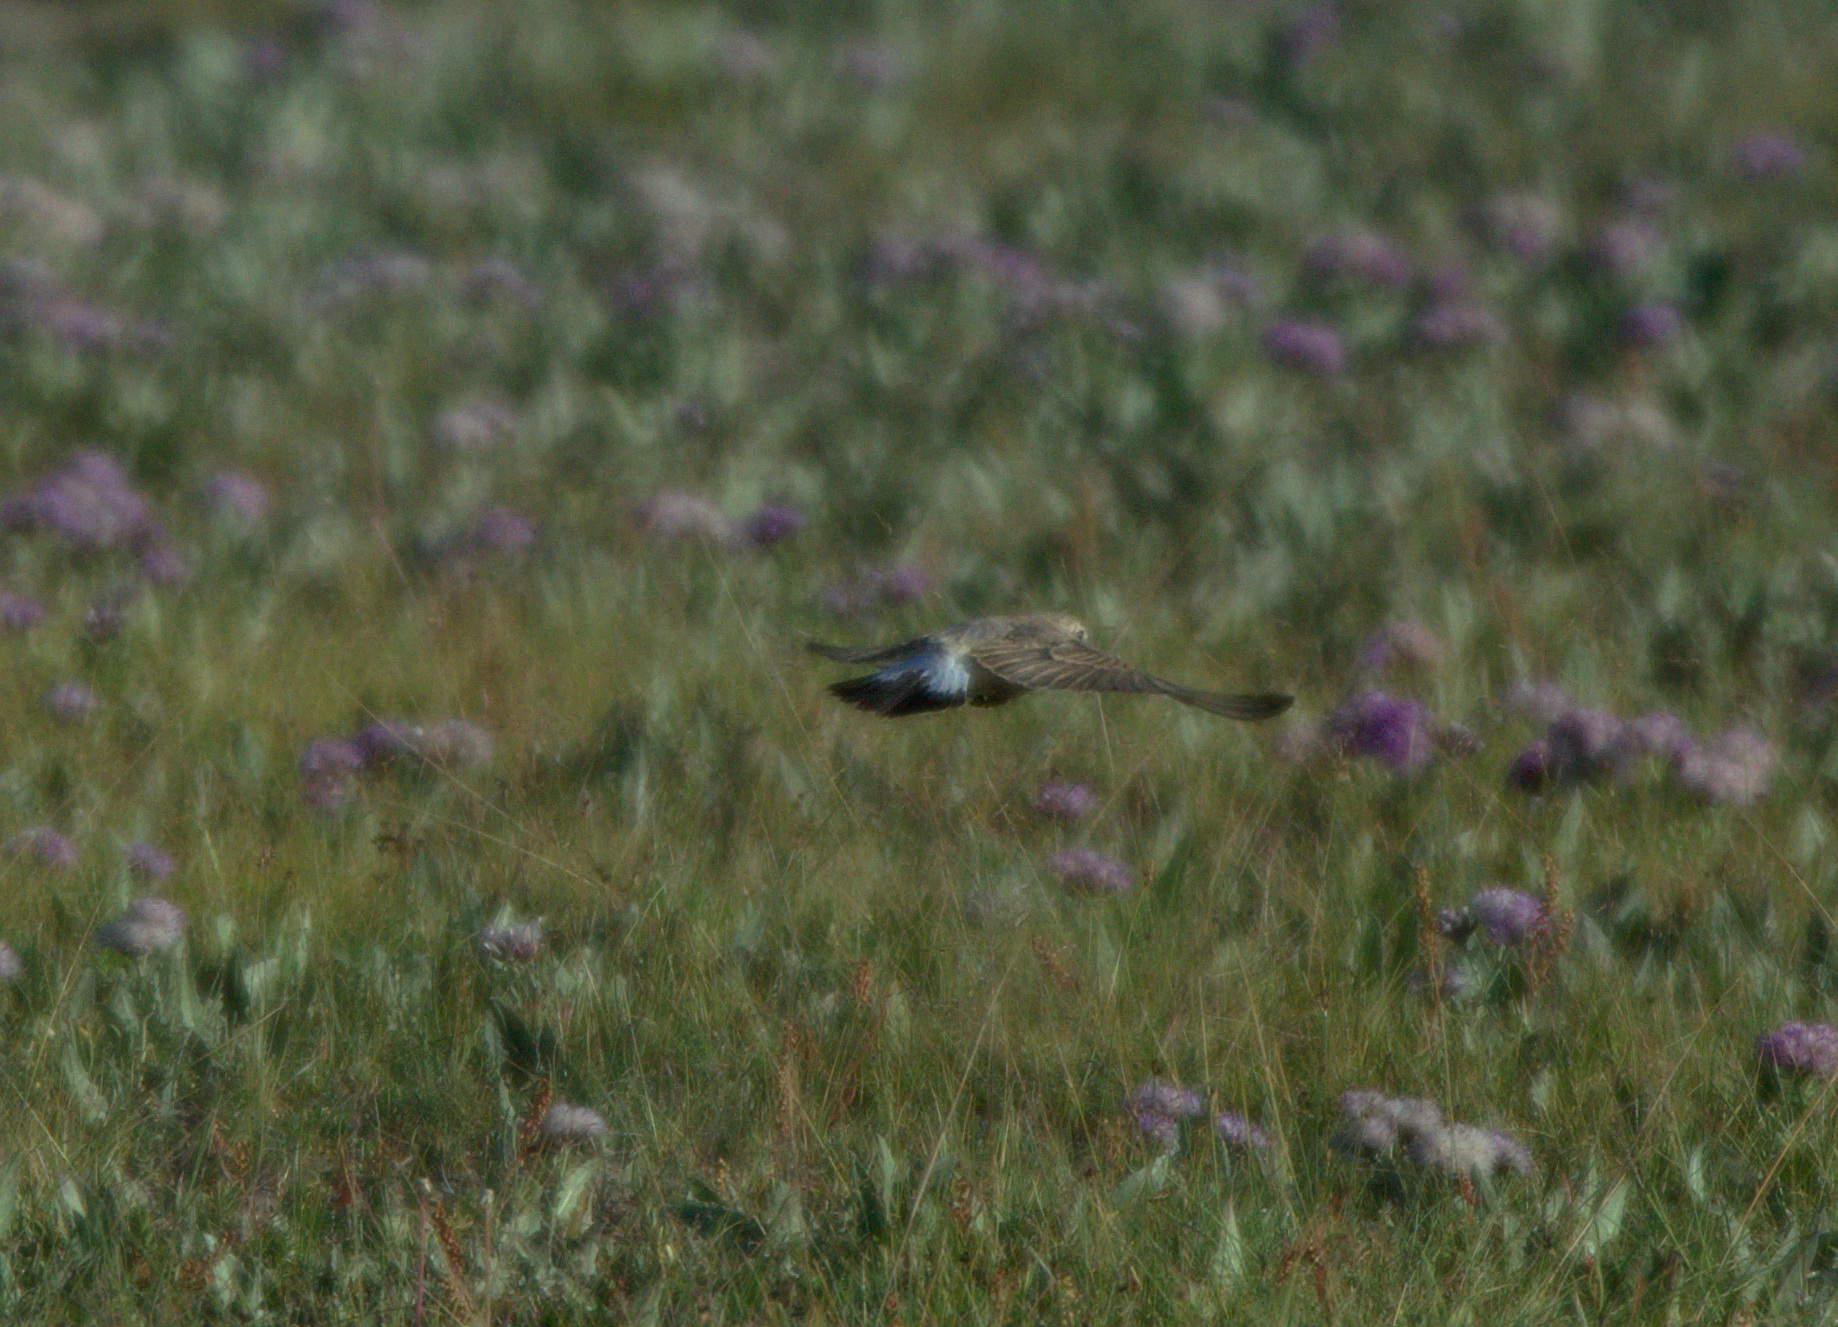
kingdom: Animalia
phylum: Chordata
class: Aves
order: Passeriformes
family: Muscicapidae
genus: Oenanthe
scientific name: Oenanthe isabellina
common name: Isabelline wheatear
